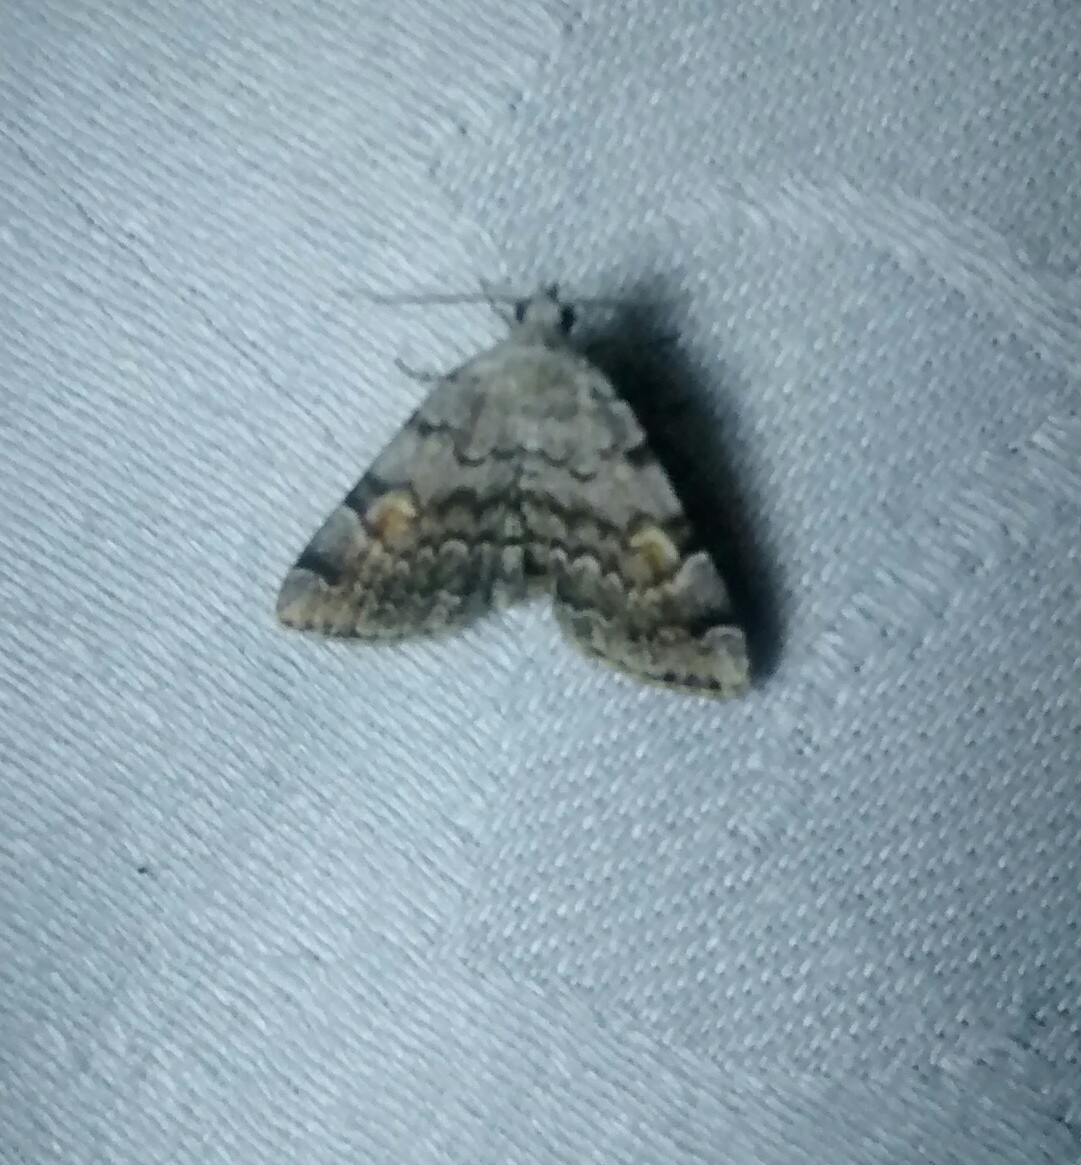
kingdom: Animalia
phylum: Arthropoda
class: Insecta
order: Lepidoptera
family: Erebidae
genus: Idia
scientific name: Idia americalis
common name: American idia moth
